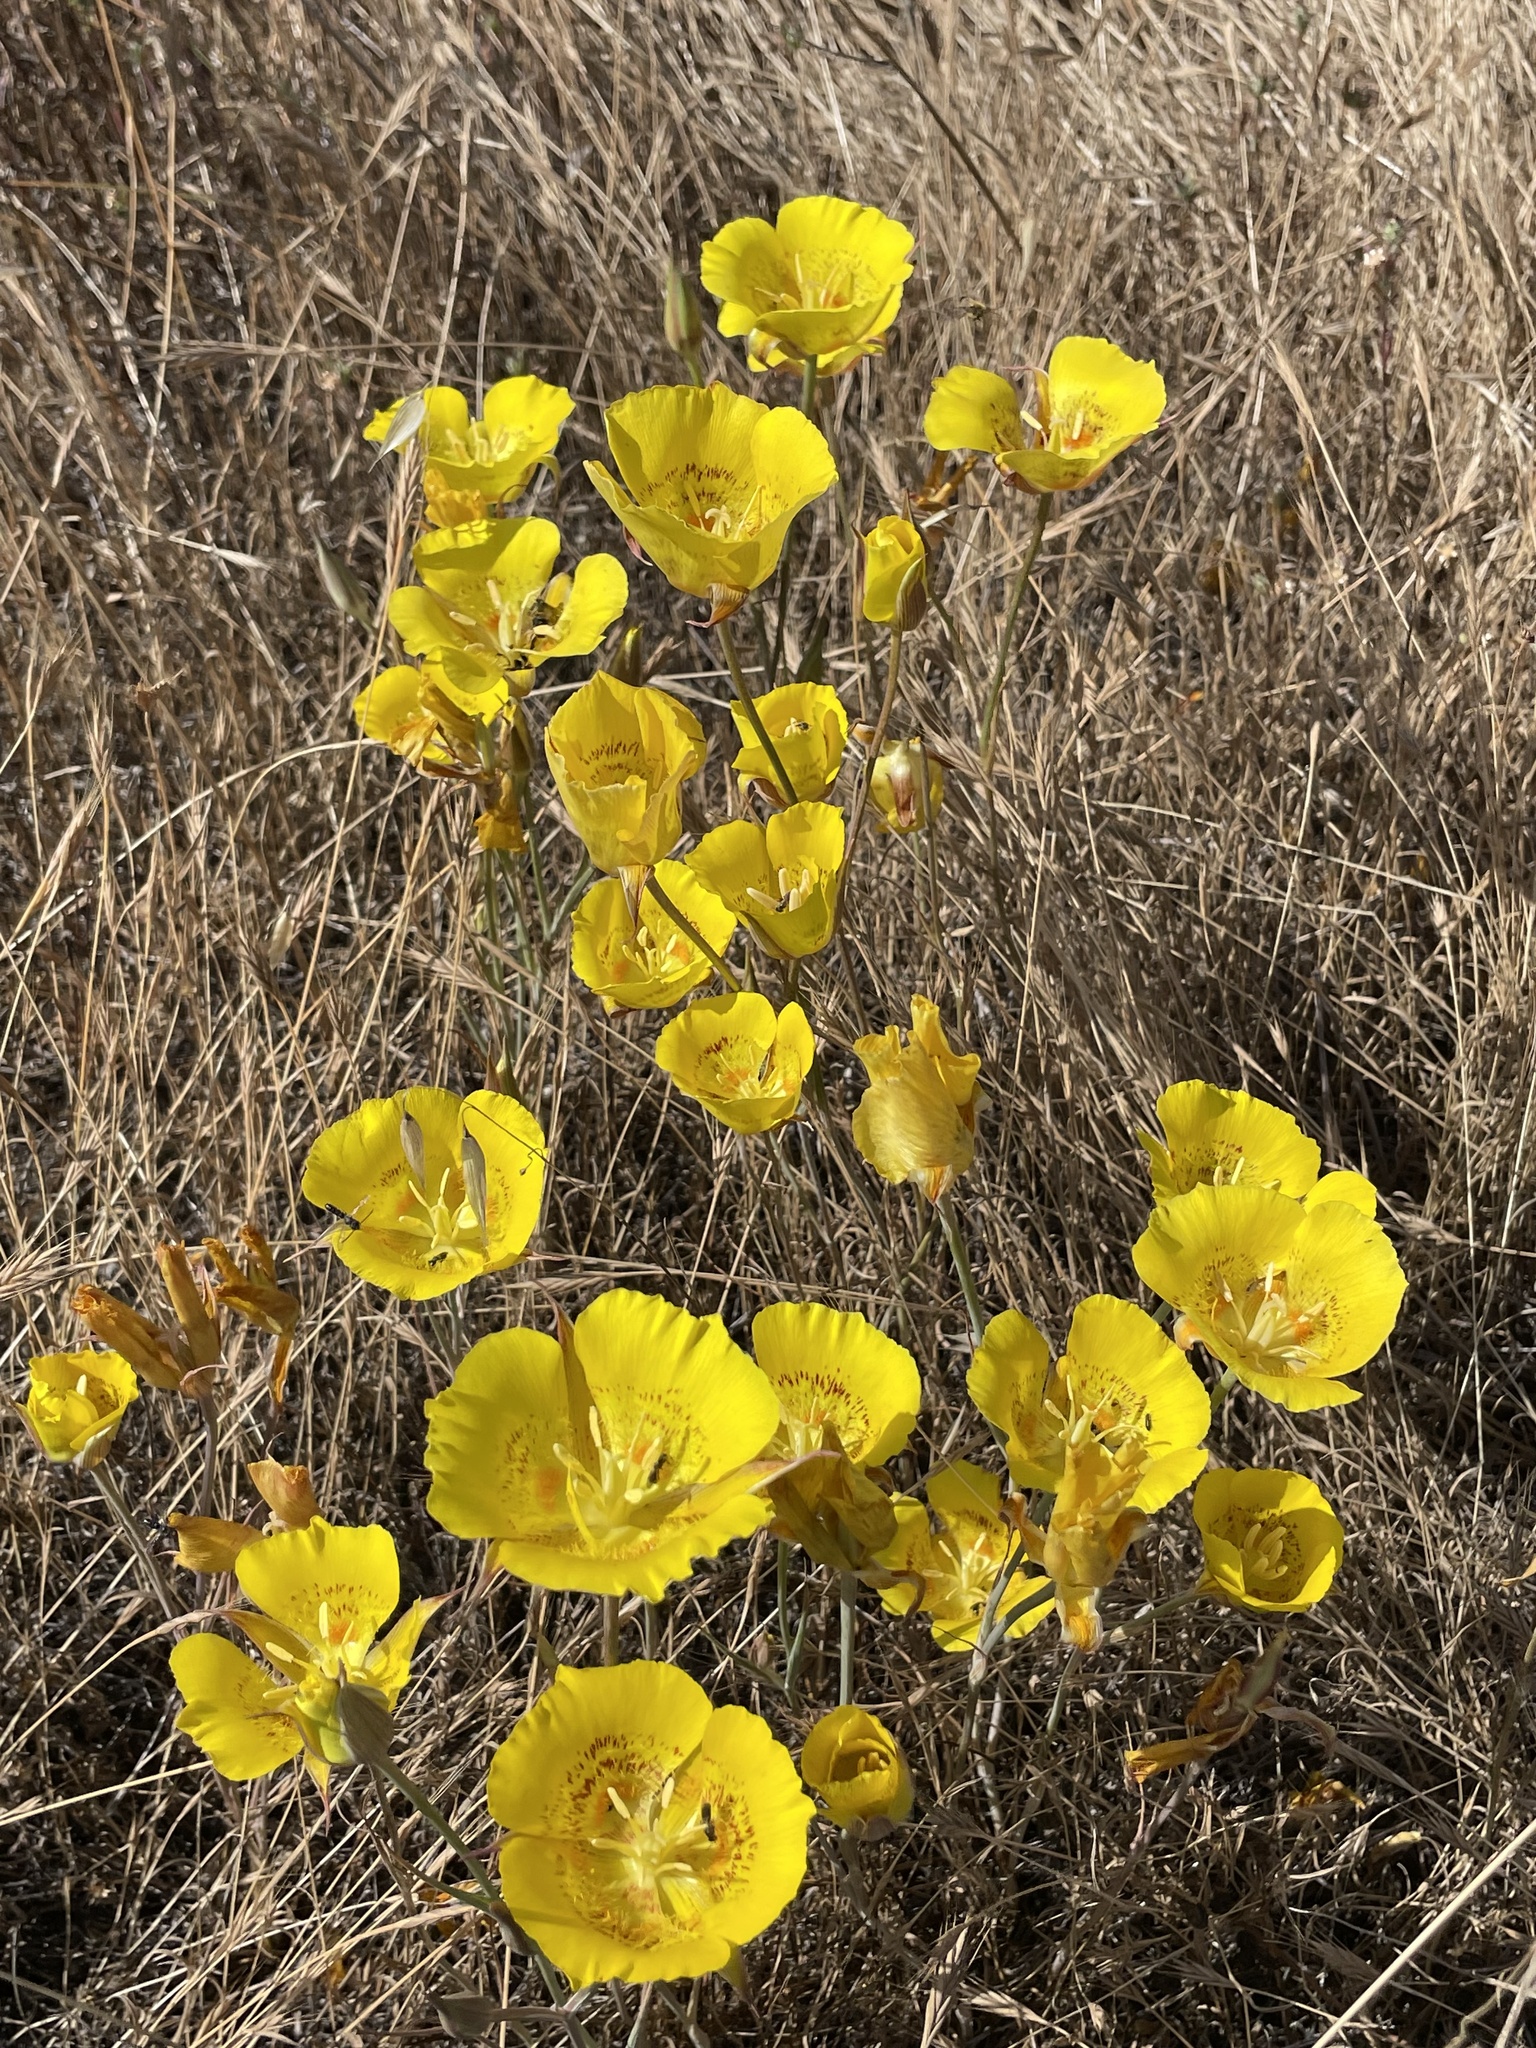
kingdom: Plantae
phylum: Tracheophyta
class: Liliopsida
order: Liliales
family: Liliaceae
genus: Calochortus
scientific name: Calochortus luteus
